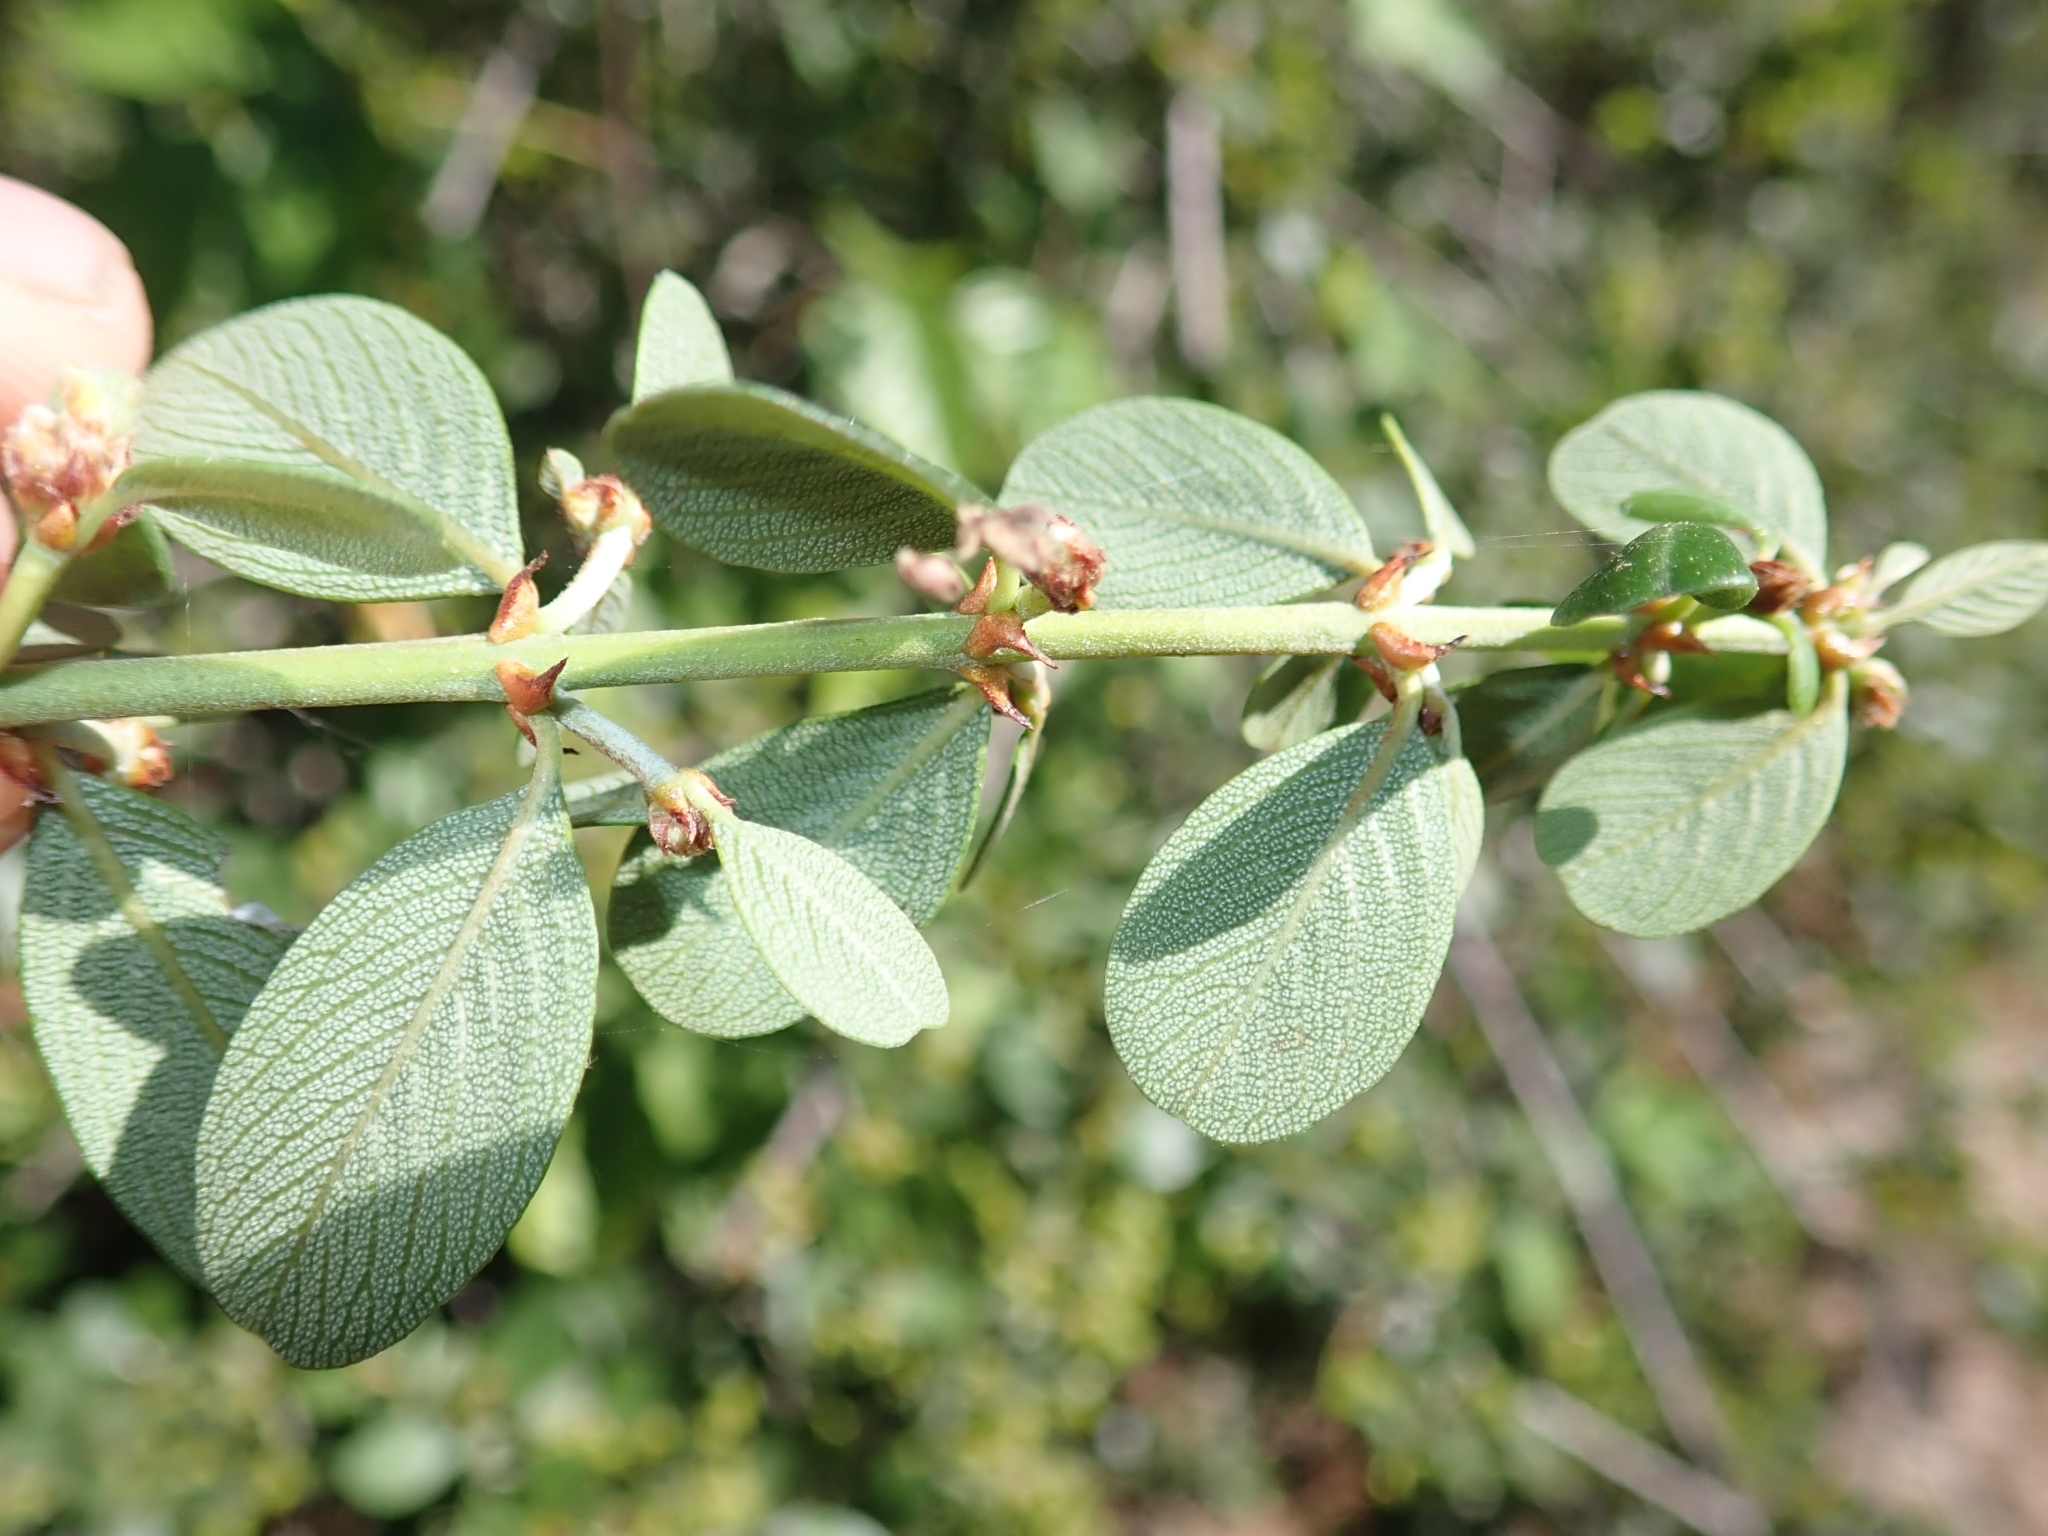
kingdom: Plantae
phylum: Tracheophyta
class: Magnoliopsida
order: Rosales
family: Rhamnaceae
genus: Ceanothus
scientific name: Ceanothus cuneatus
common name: Cuneate ceanothus
